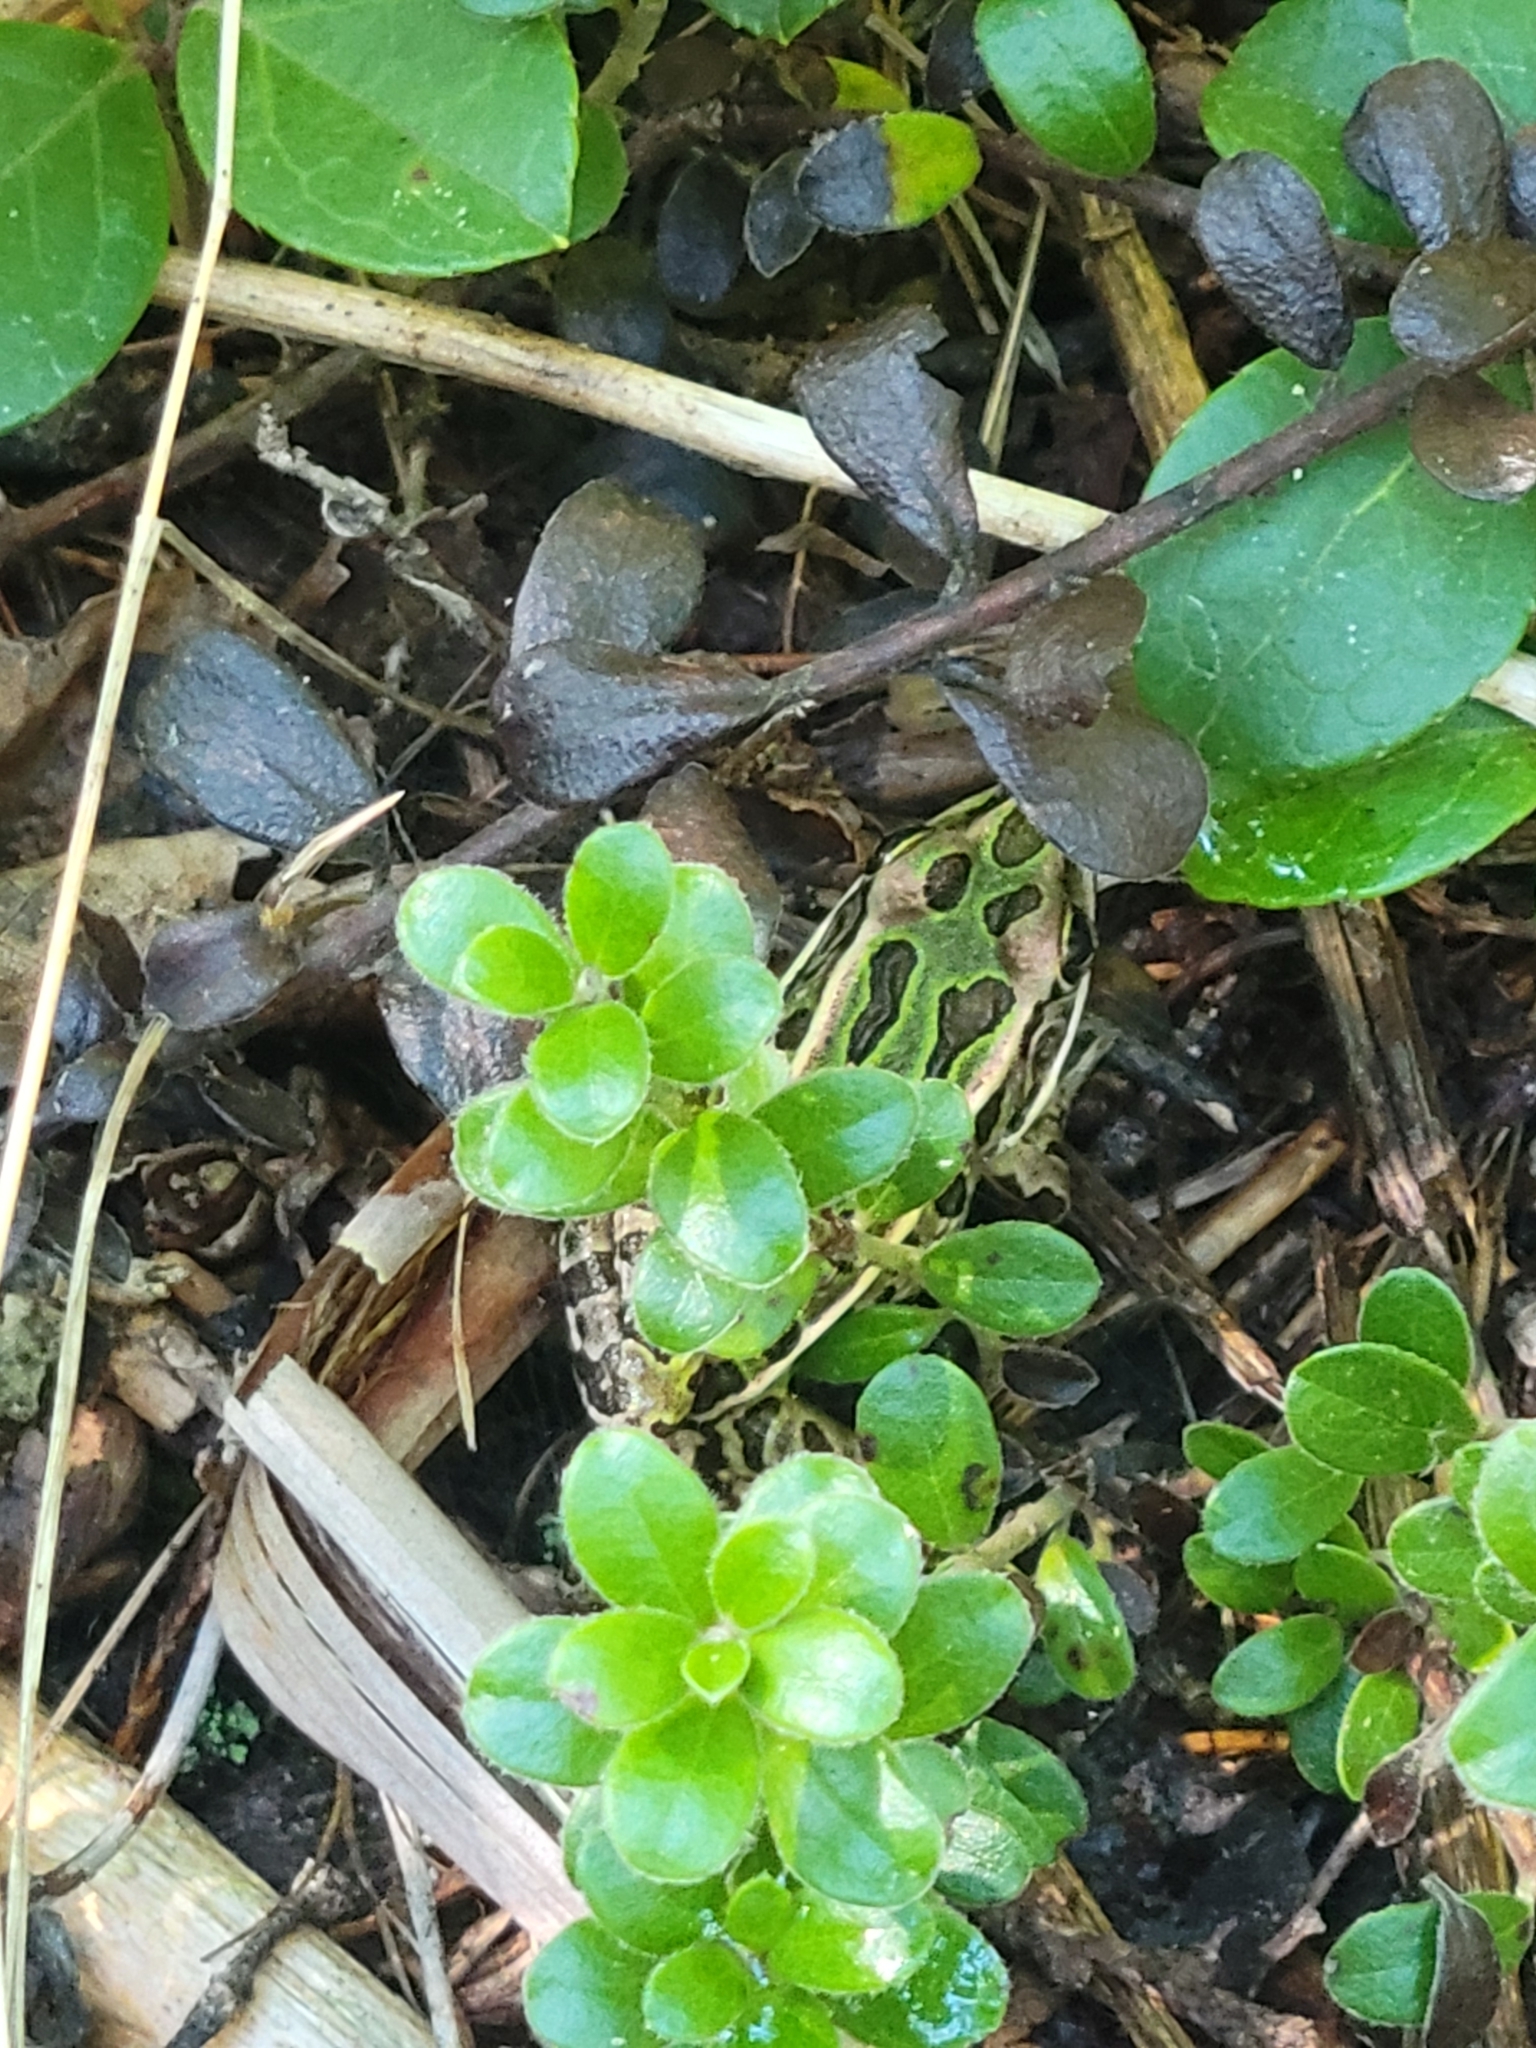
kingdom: Animalia
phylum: Chordata
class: Amphibia
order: Anura
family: Ranidae
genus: Lithobates
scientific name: Lithobates pipiens
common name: Northern leopard frog
